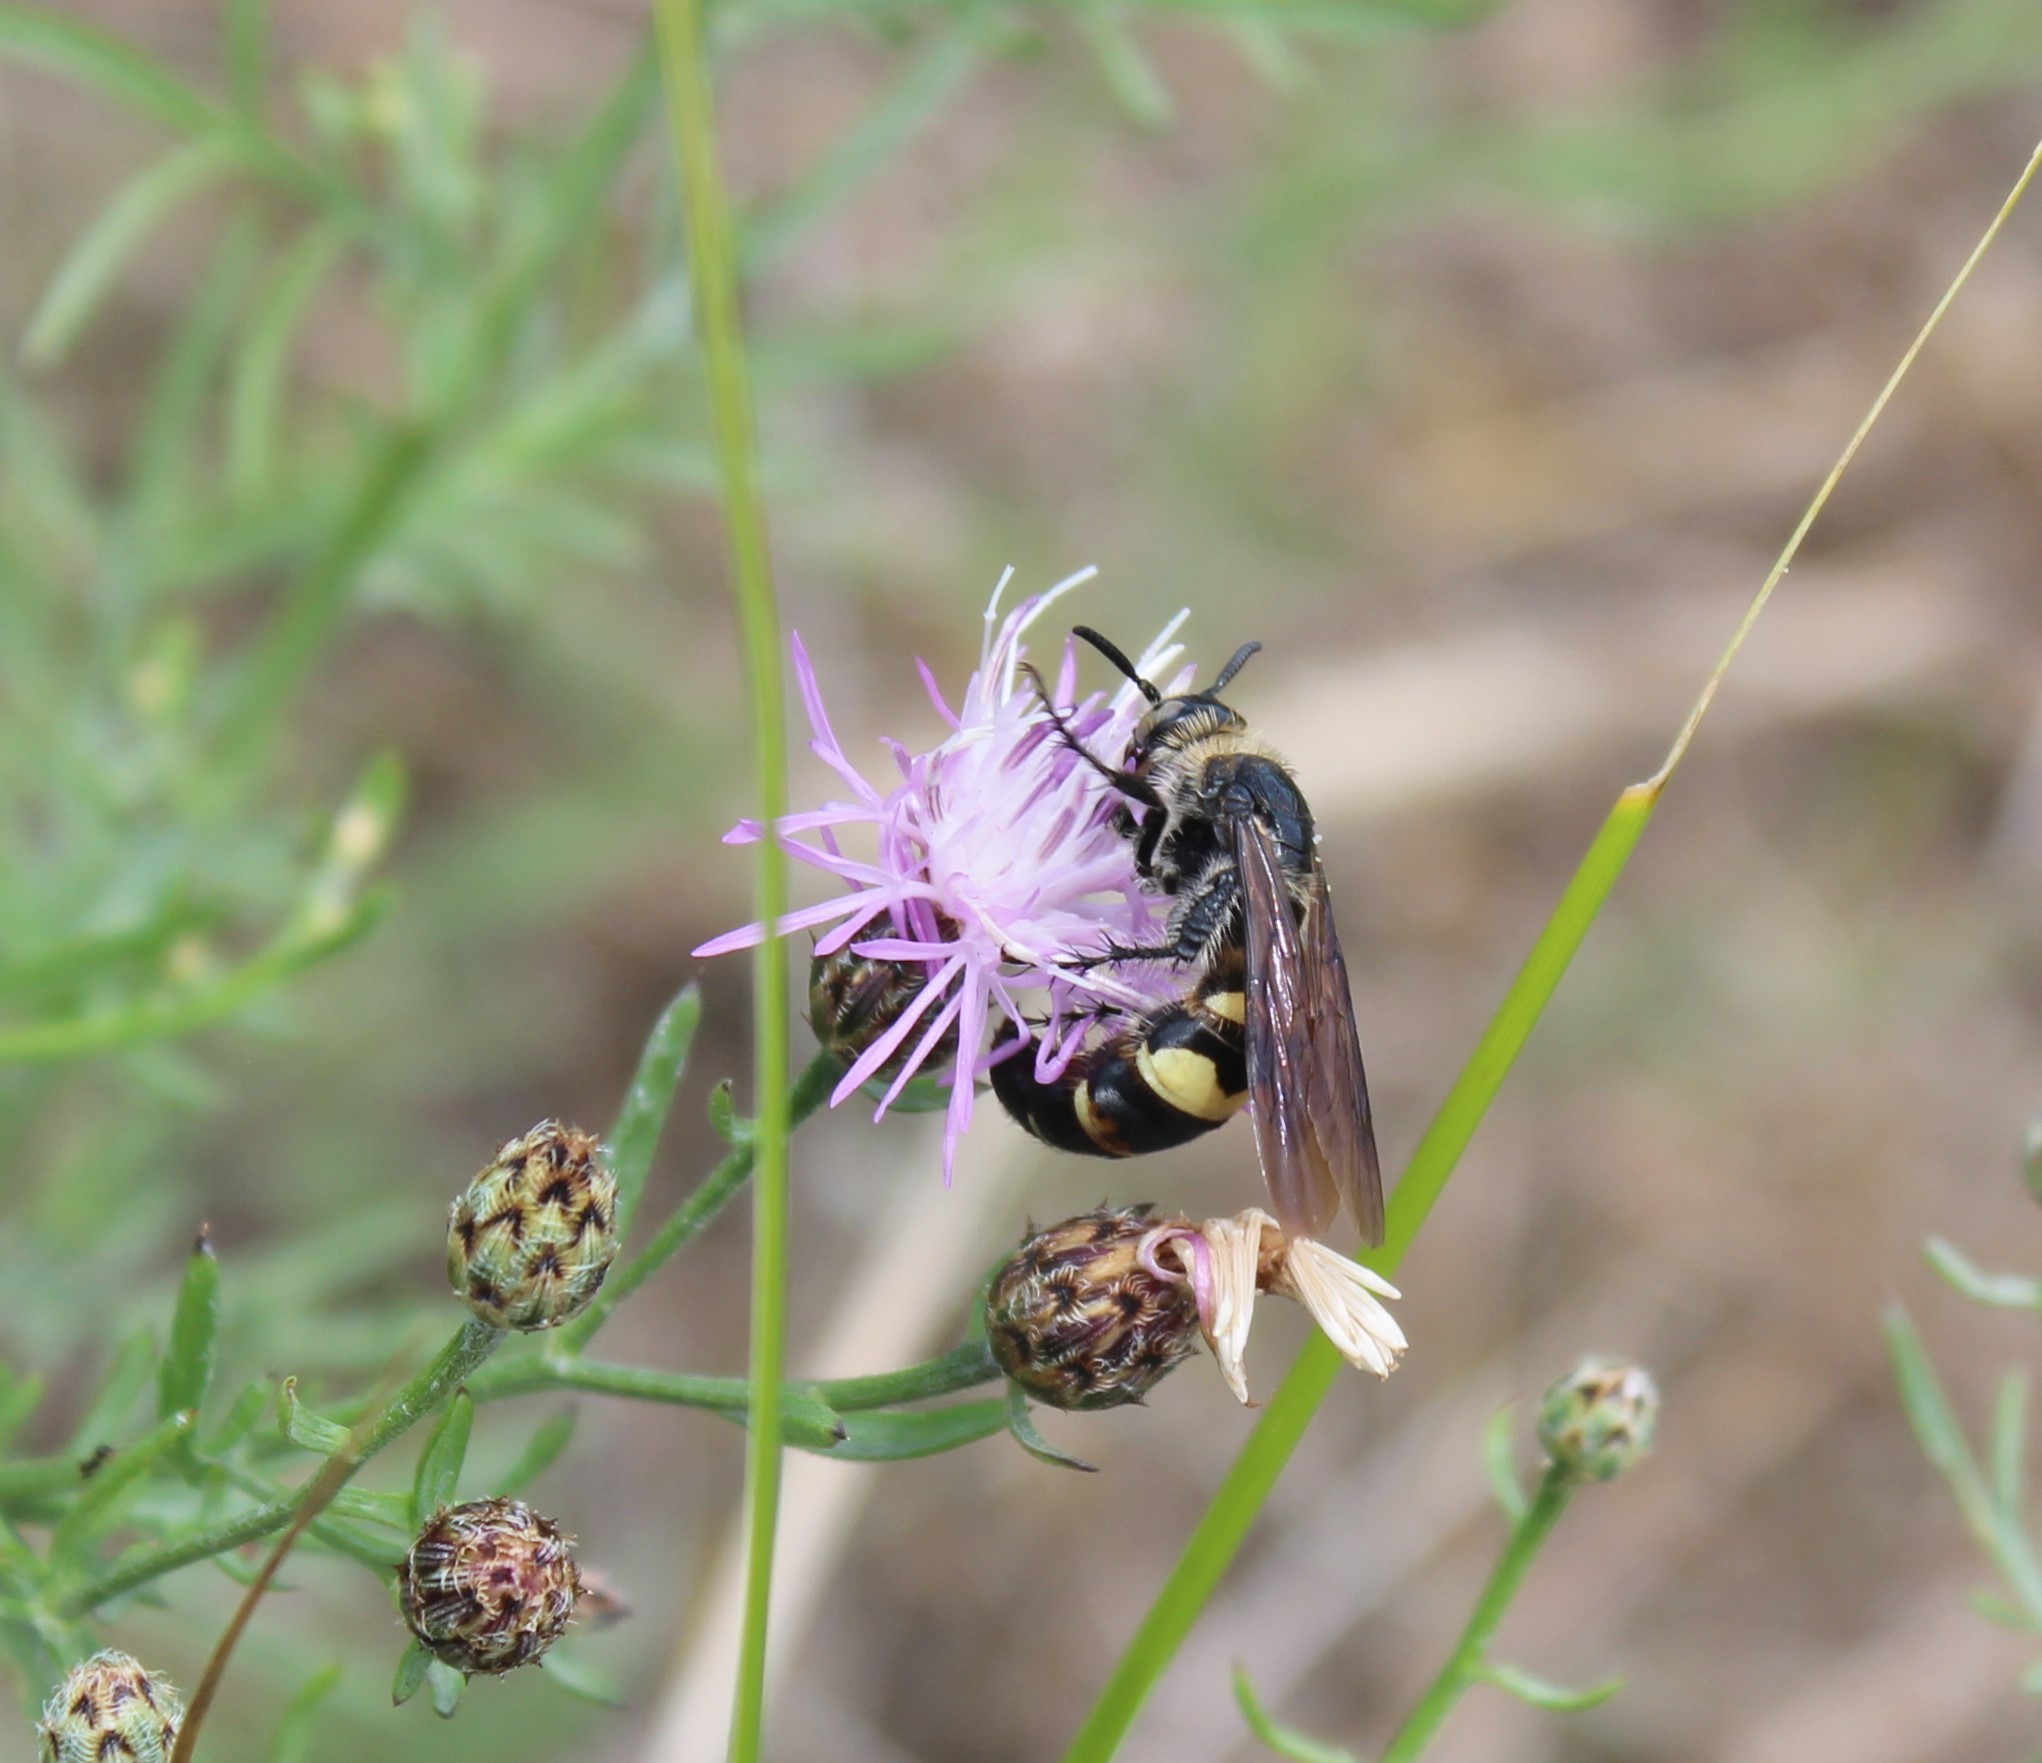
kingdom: Animalia
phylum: Arthropoda
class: Insecta
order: Hymenoptera
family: Scoliidae
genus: Dielis
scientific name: Dielis
